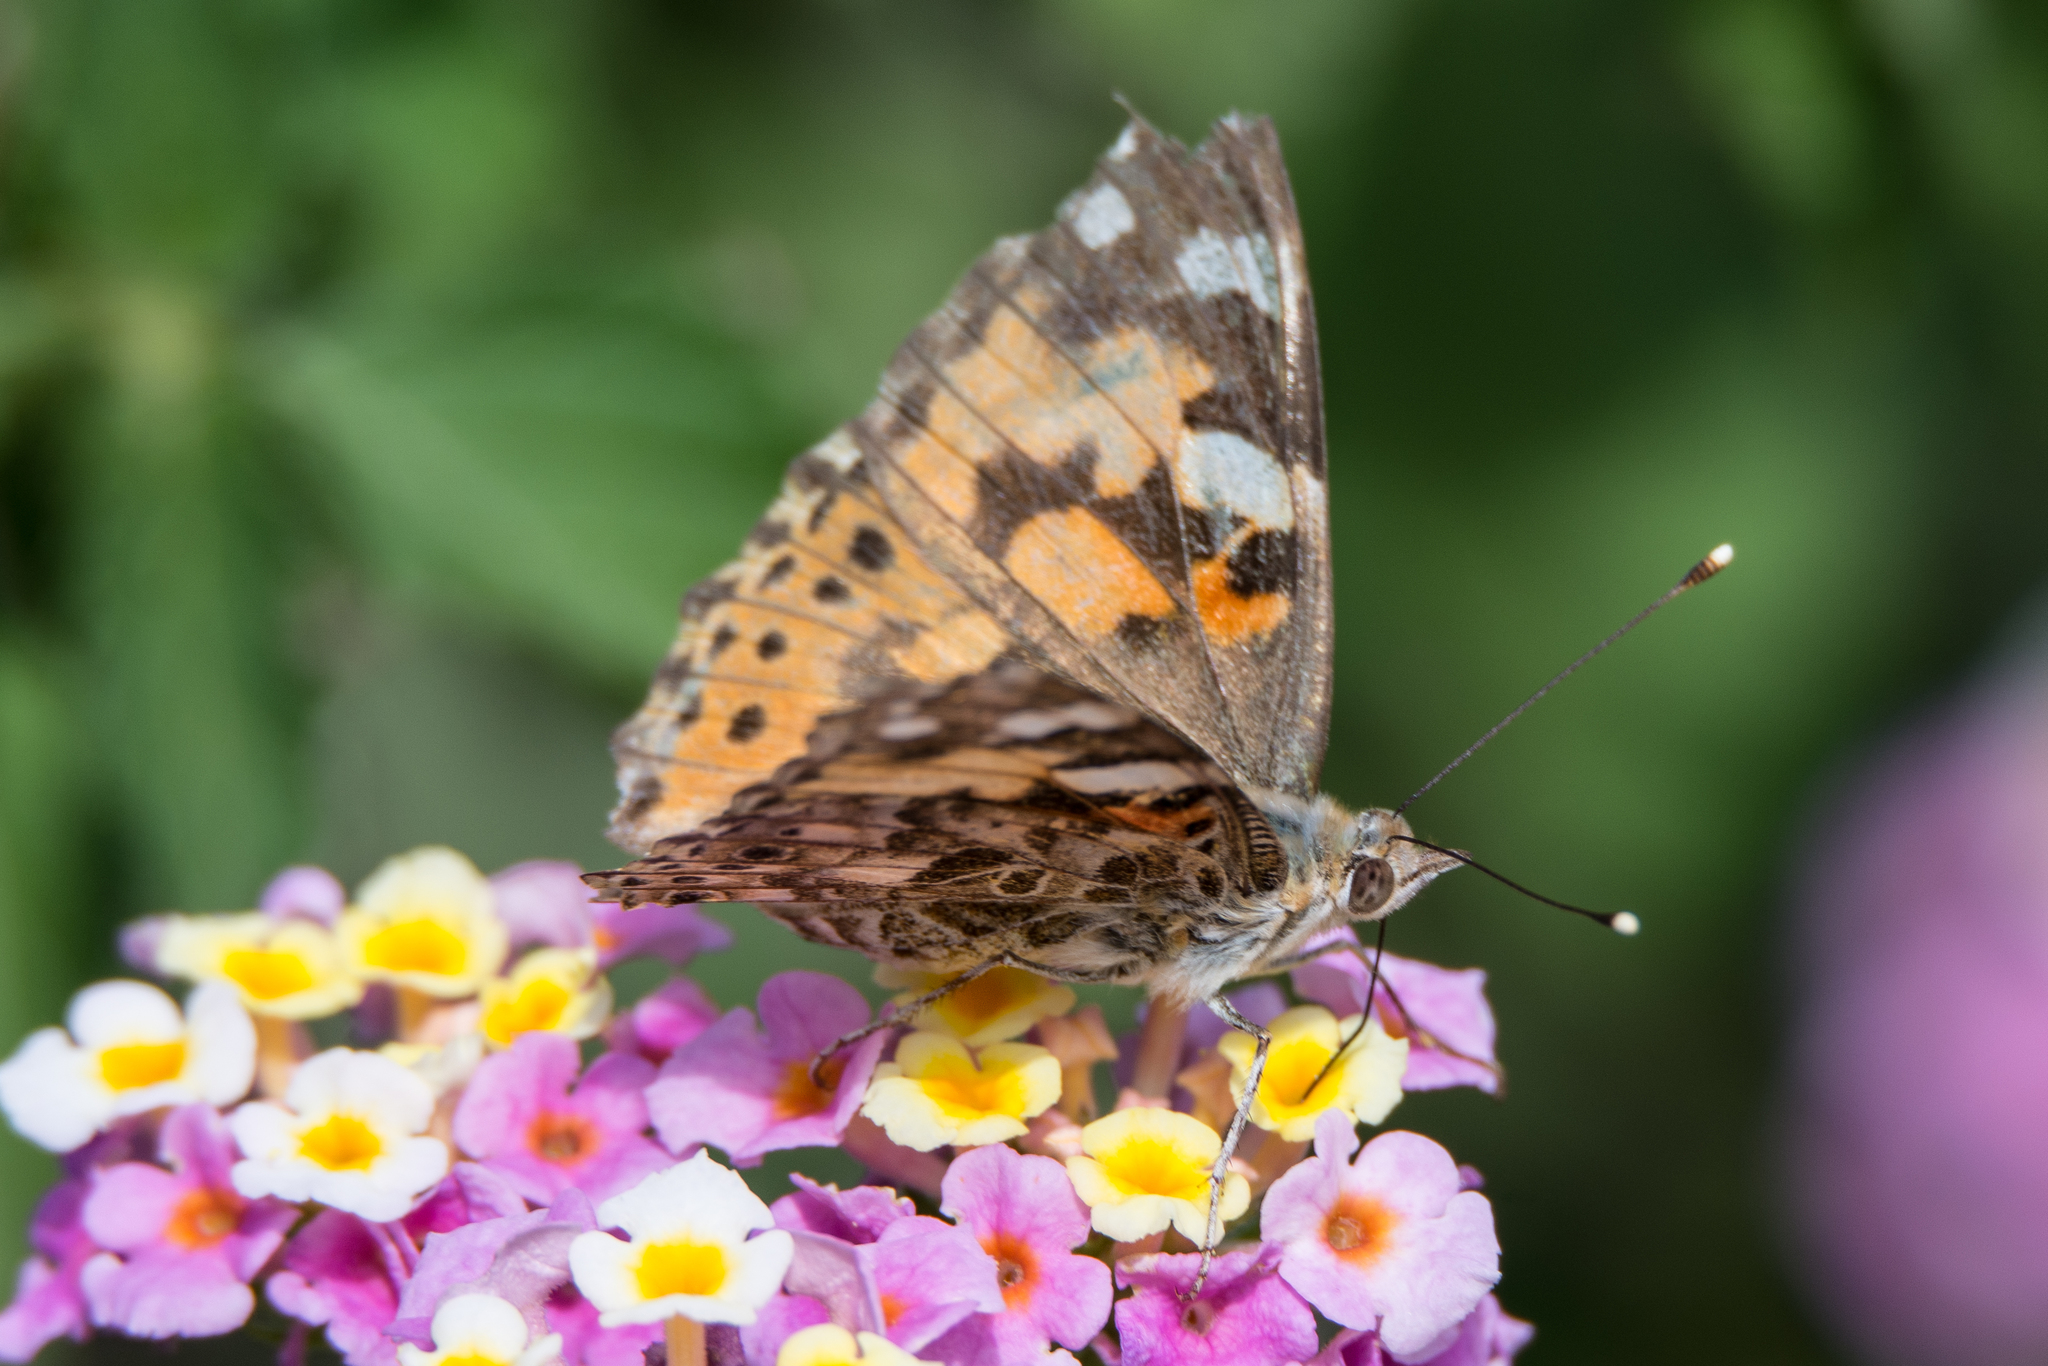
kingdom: Animalia
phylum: Arthropoda
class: Insecta
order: Lepidoptera
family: Nymphalidae
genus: Vanessa
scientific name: Vanessa cardui
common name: Painted lady
